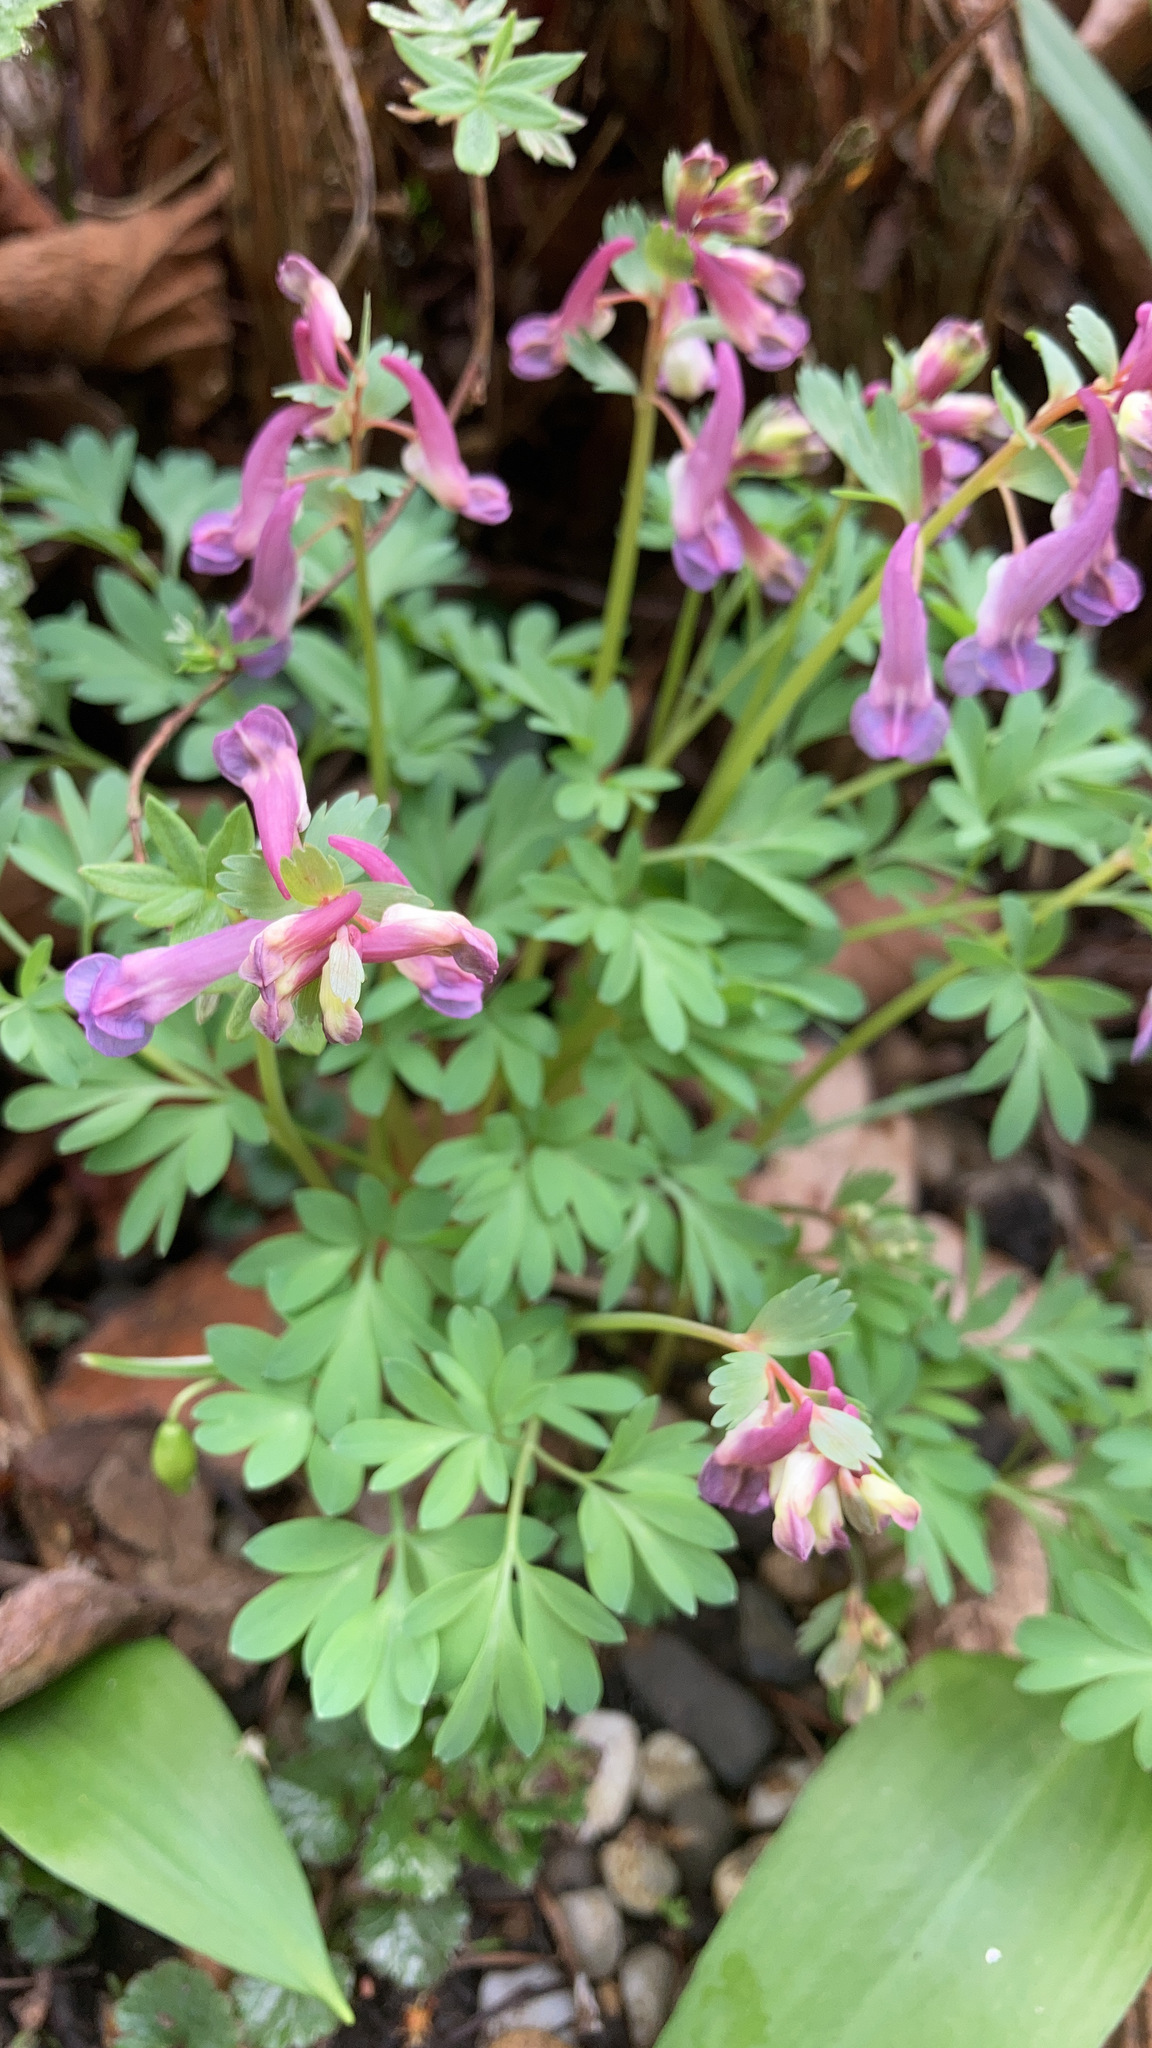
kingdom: Plantae
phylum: Tracheophyta
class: Magnoliopsida
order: Ranunculales
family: Papaveraceae
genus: Corydalis
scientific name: Corydalis solida
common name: Bird-in-a-bush
